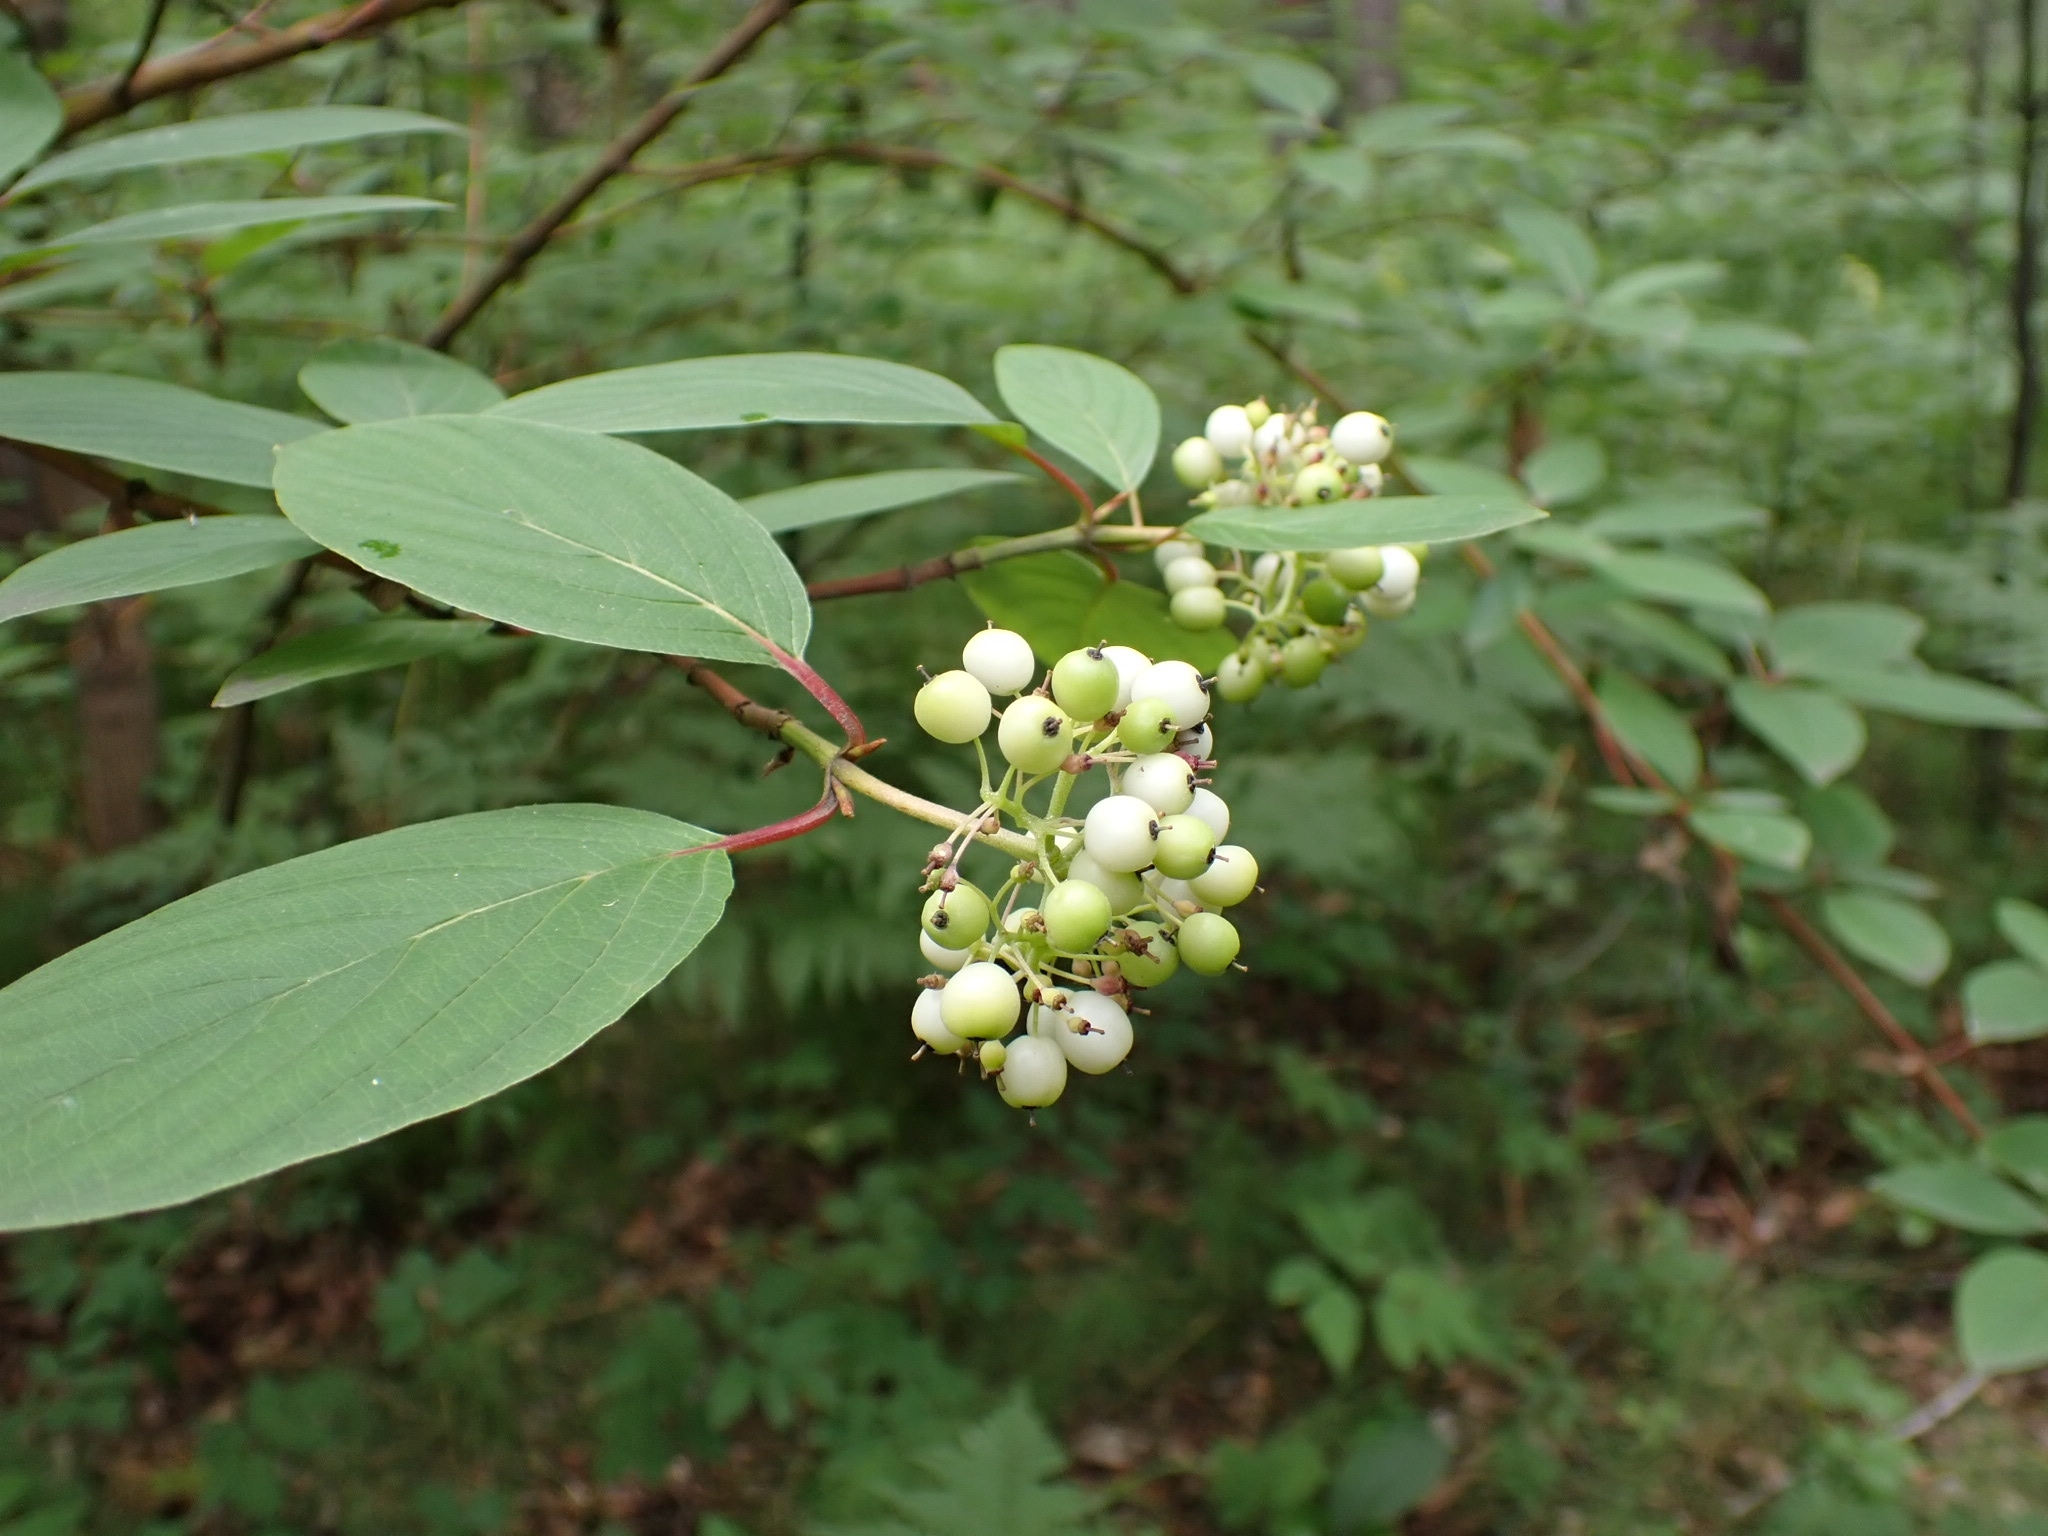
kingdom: Plantae
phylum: Tracheophyta
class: Magnoliopsida
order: Cornales
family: Cornaceae
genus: Cornus
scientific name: Cornus alba
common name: White dogwood
